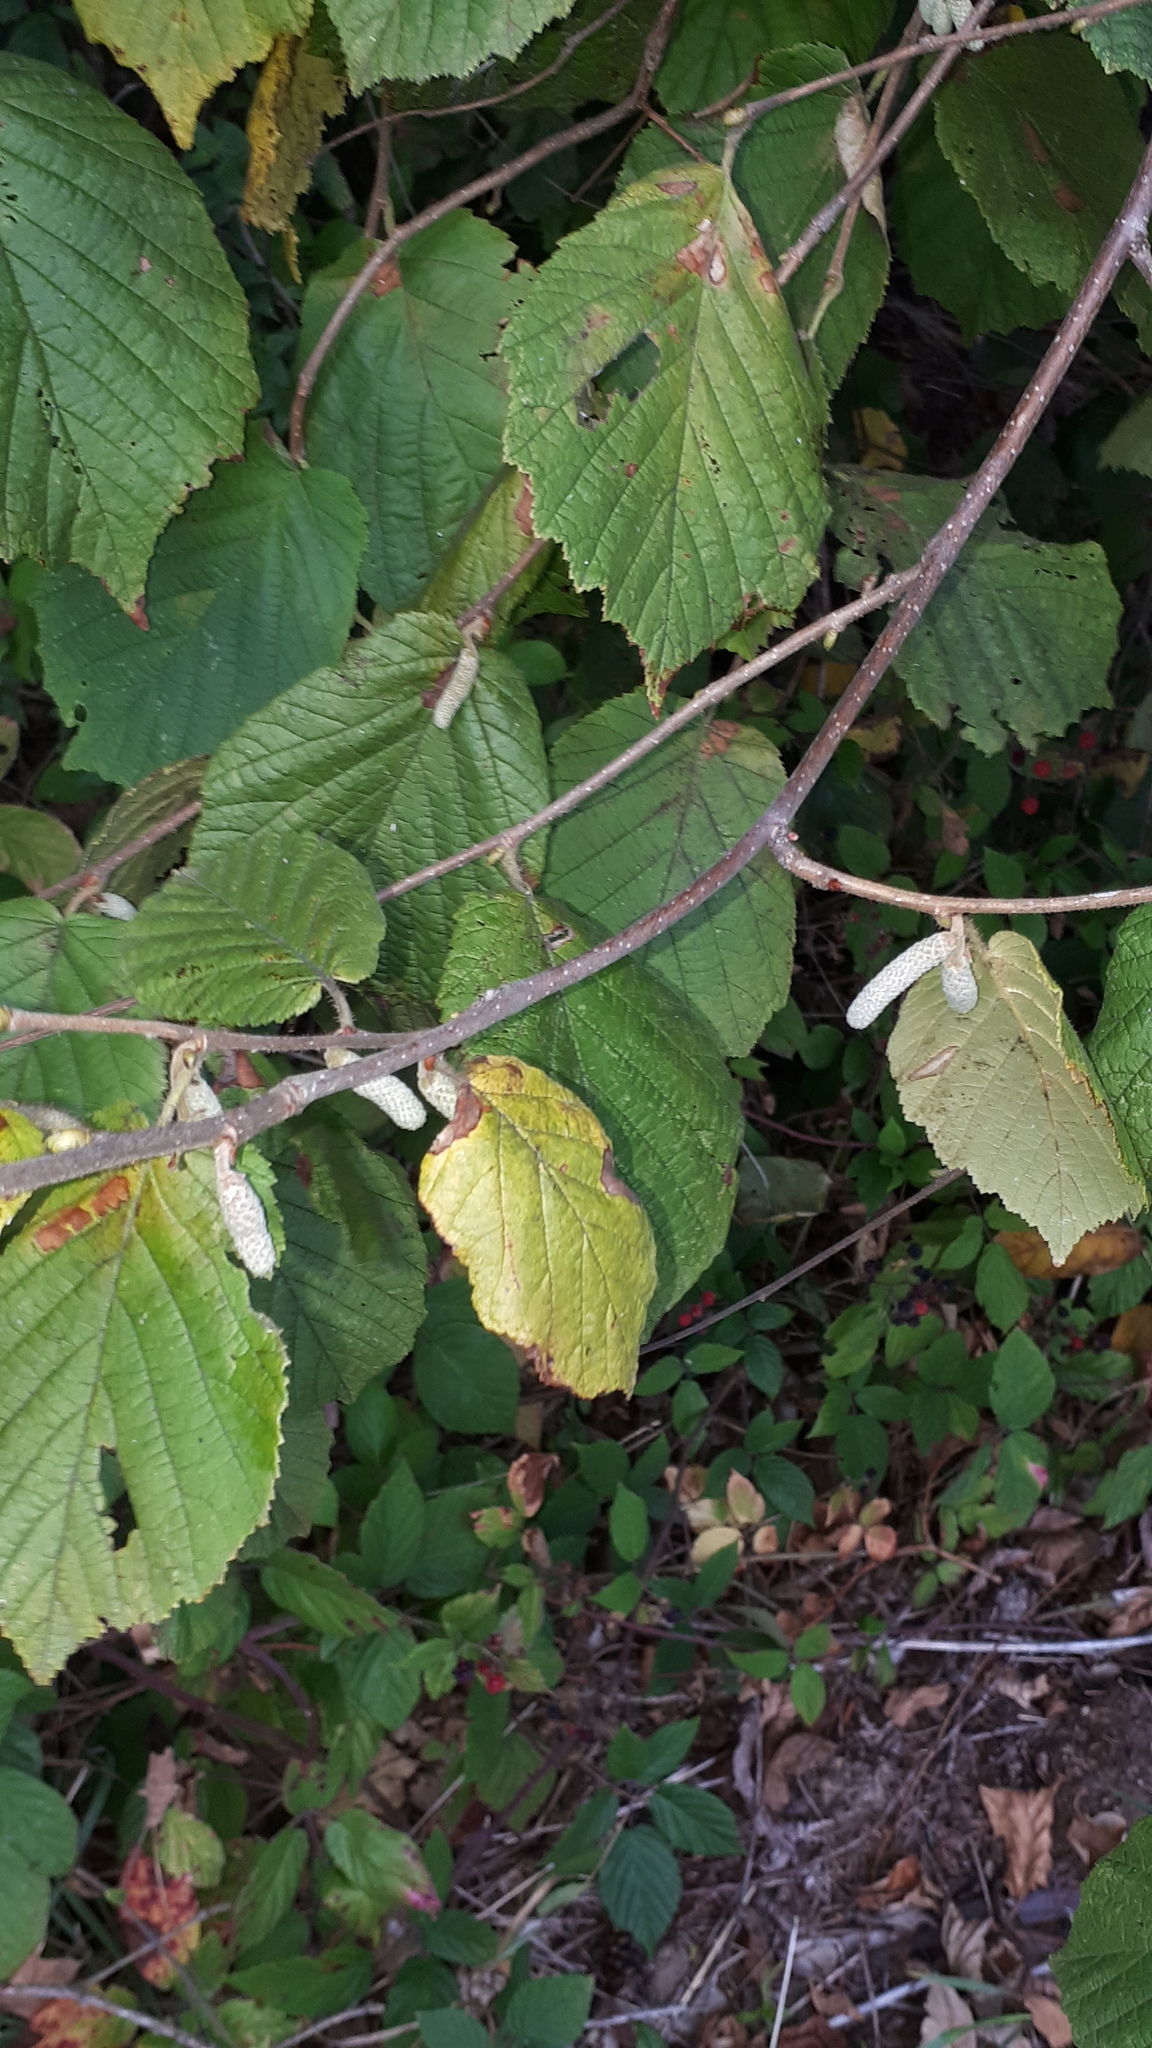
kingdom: Plantae
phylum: Tracheophyta
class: Magnoliopsida
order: Fagales
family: Betulaceae
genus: Corylus
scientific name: Corylus avellana
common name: European hazel
